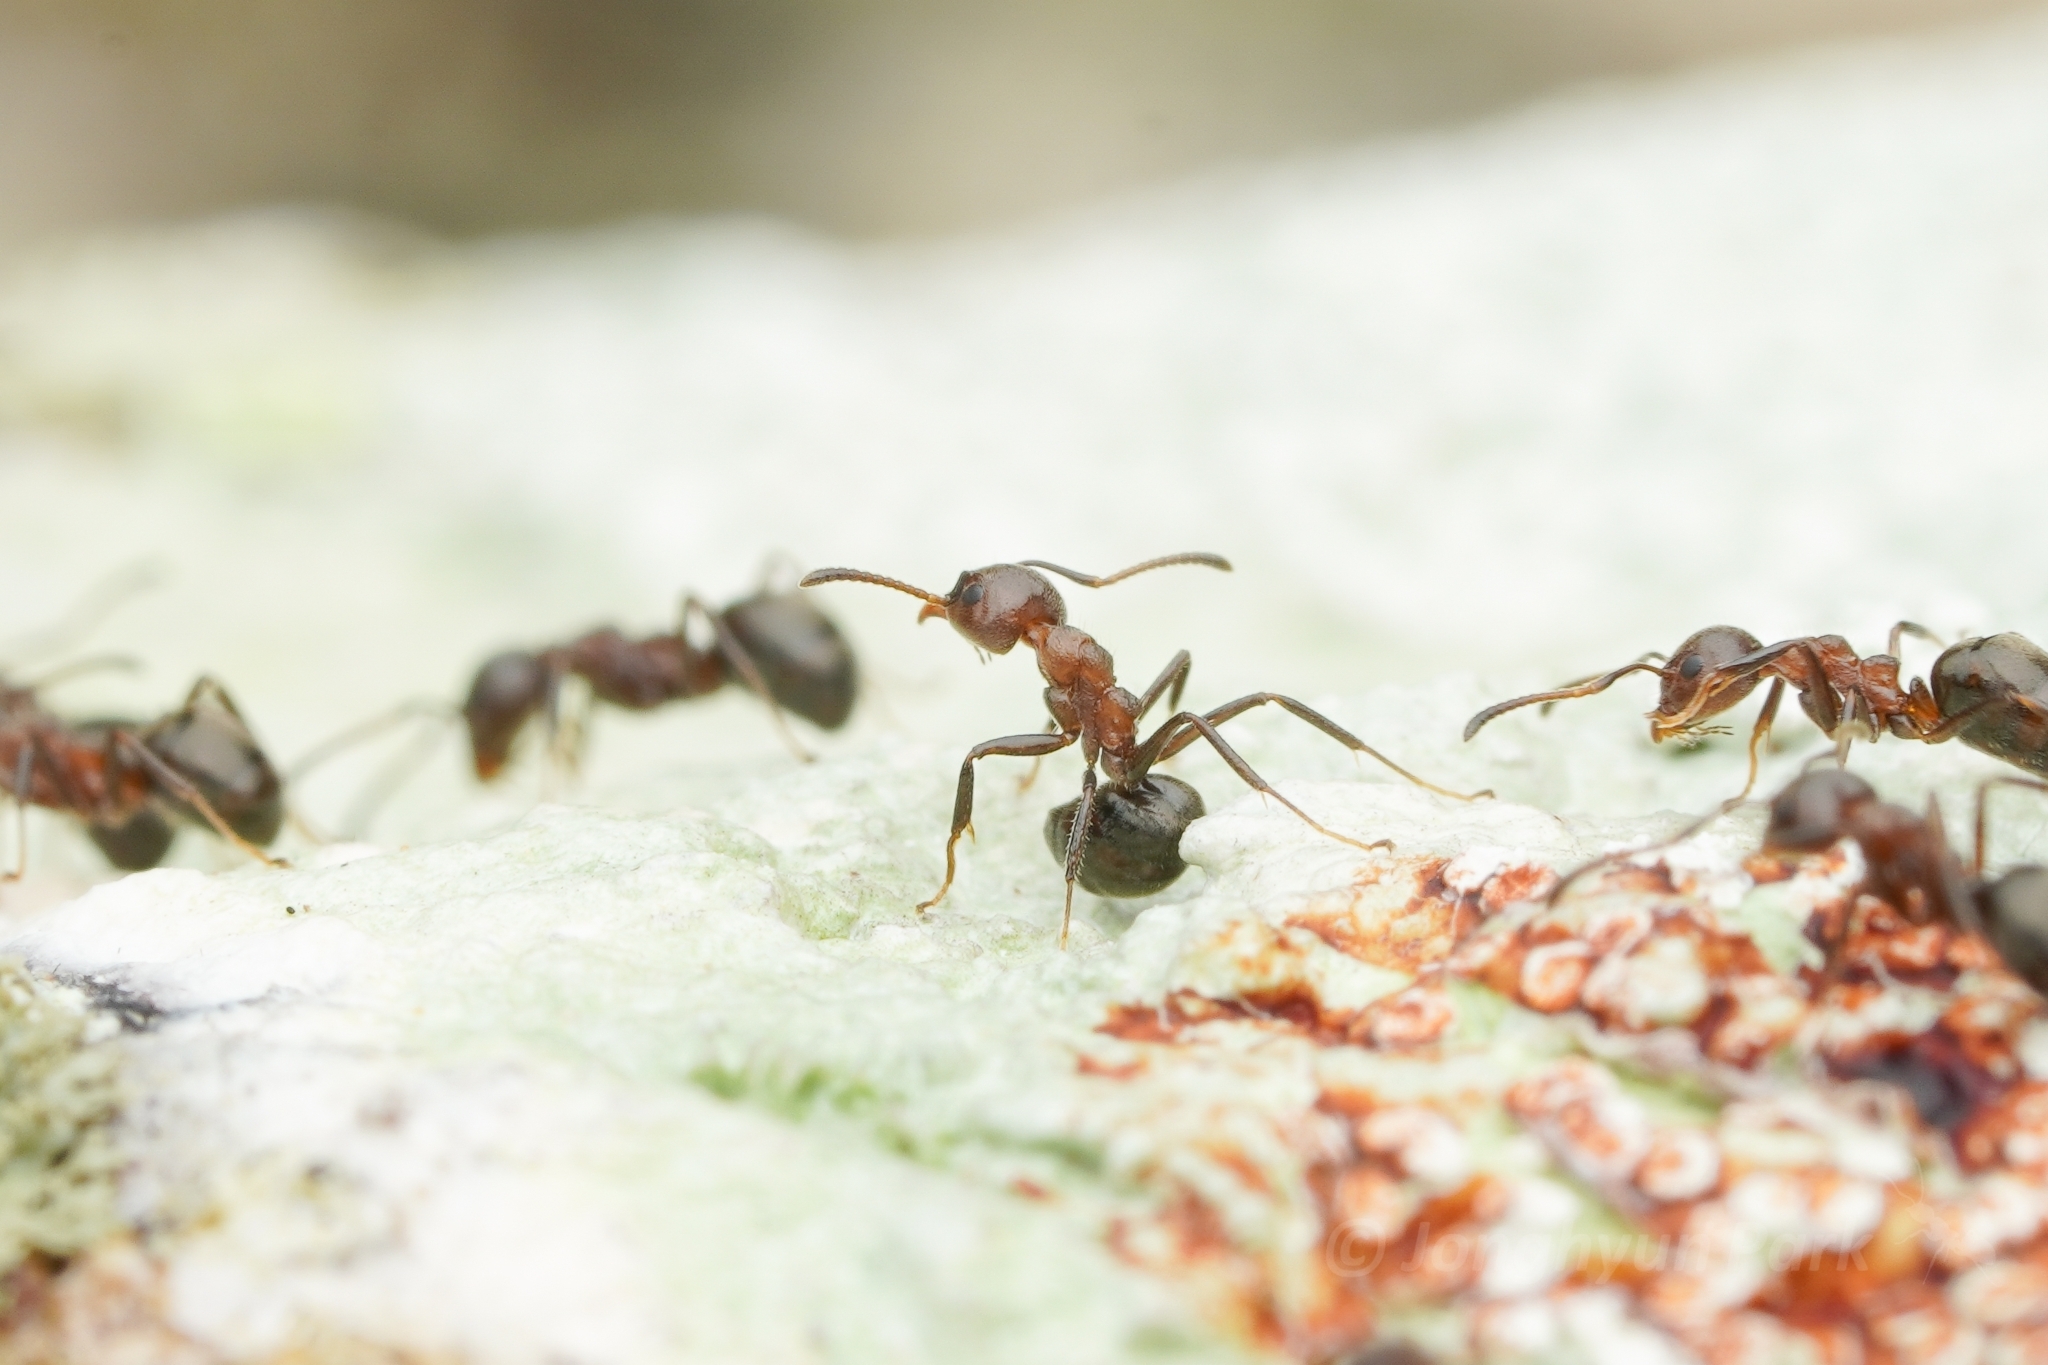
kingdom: Animalia
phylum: Arthropoda
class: Insecta
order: Hymenoptera
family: Formicidae
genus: Dolichoderus
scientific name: Dolichoderus thoracicus
